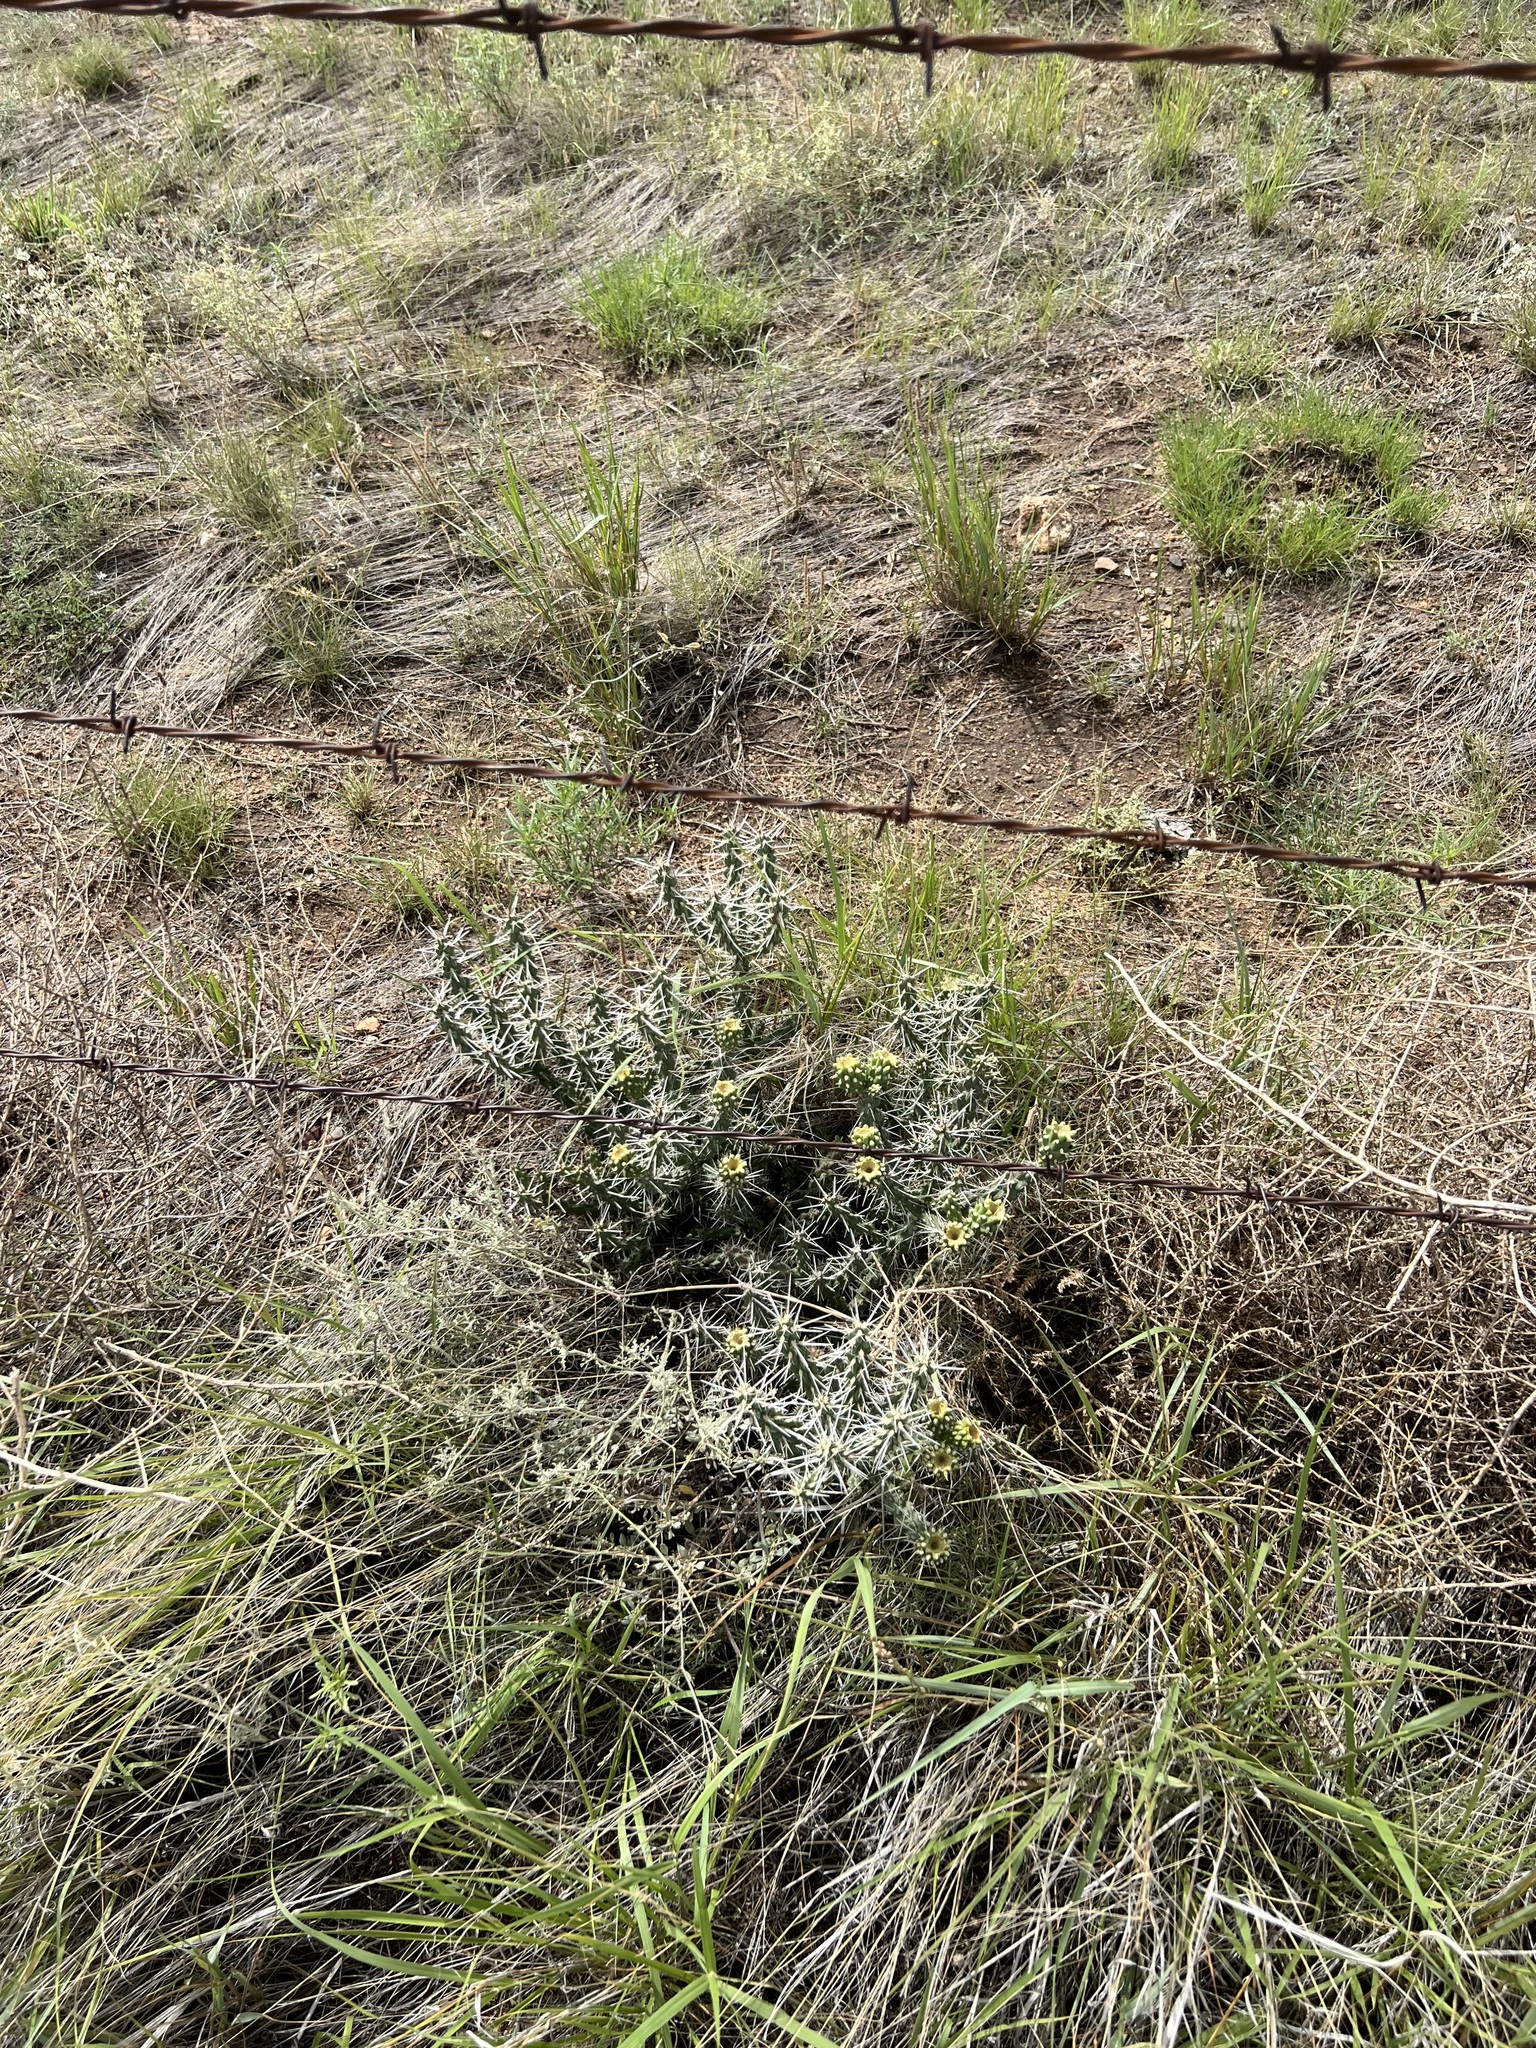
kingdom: Plantae
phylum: Tracheophyta
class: Magnoliopsida
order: Caryophyllales
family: Cactaceae
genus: Cylindropuntia
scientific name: Cylindropuntia whipplei
